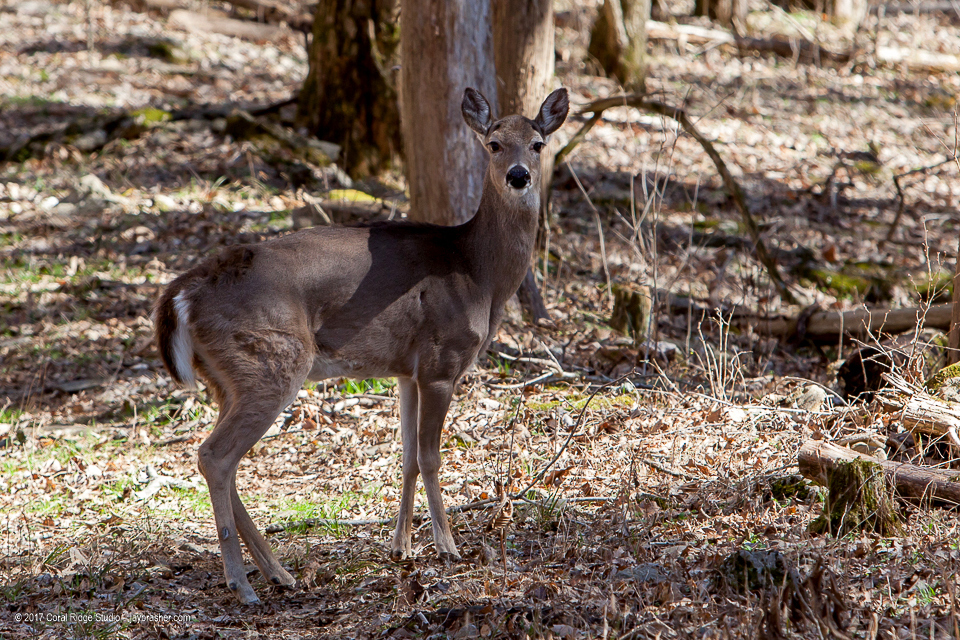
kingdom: Animalia
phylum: Chordata
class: Mammalia
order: Artiodactyla
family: Cervidae
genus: Odocoileus
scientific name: Odocoileus virginianus
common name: White-tailed deer
